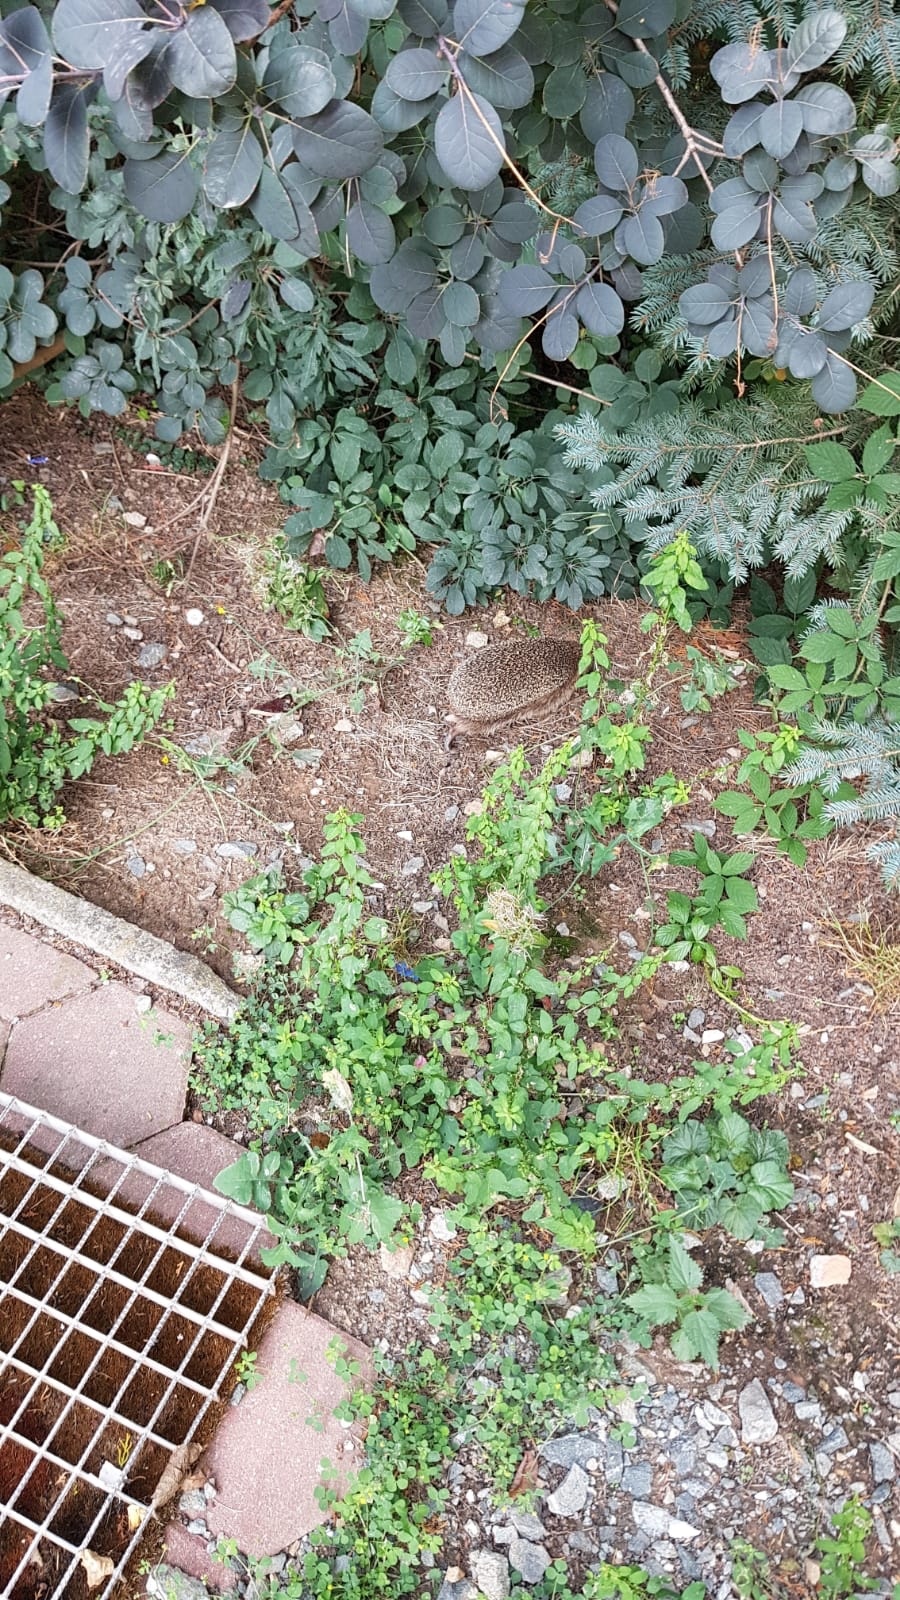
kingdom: Animalia
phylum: Chordata
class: Mammalia
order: Erinaceomorpha
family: Erinaceidae
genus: Erinaceus
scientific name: Erinaceus europaeus
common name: West european hedgehog
